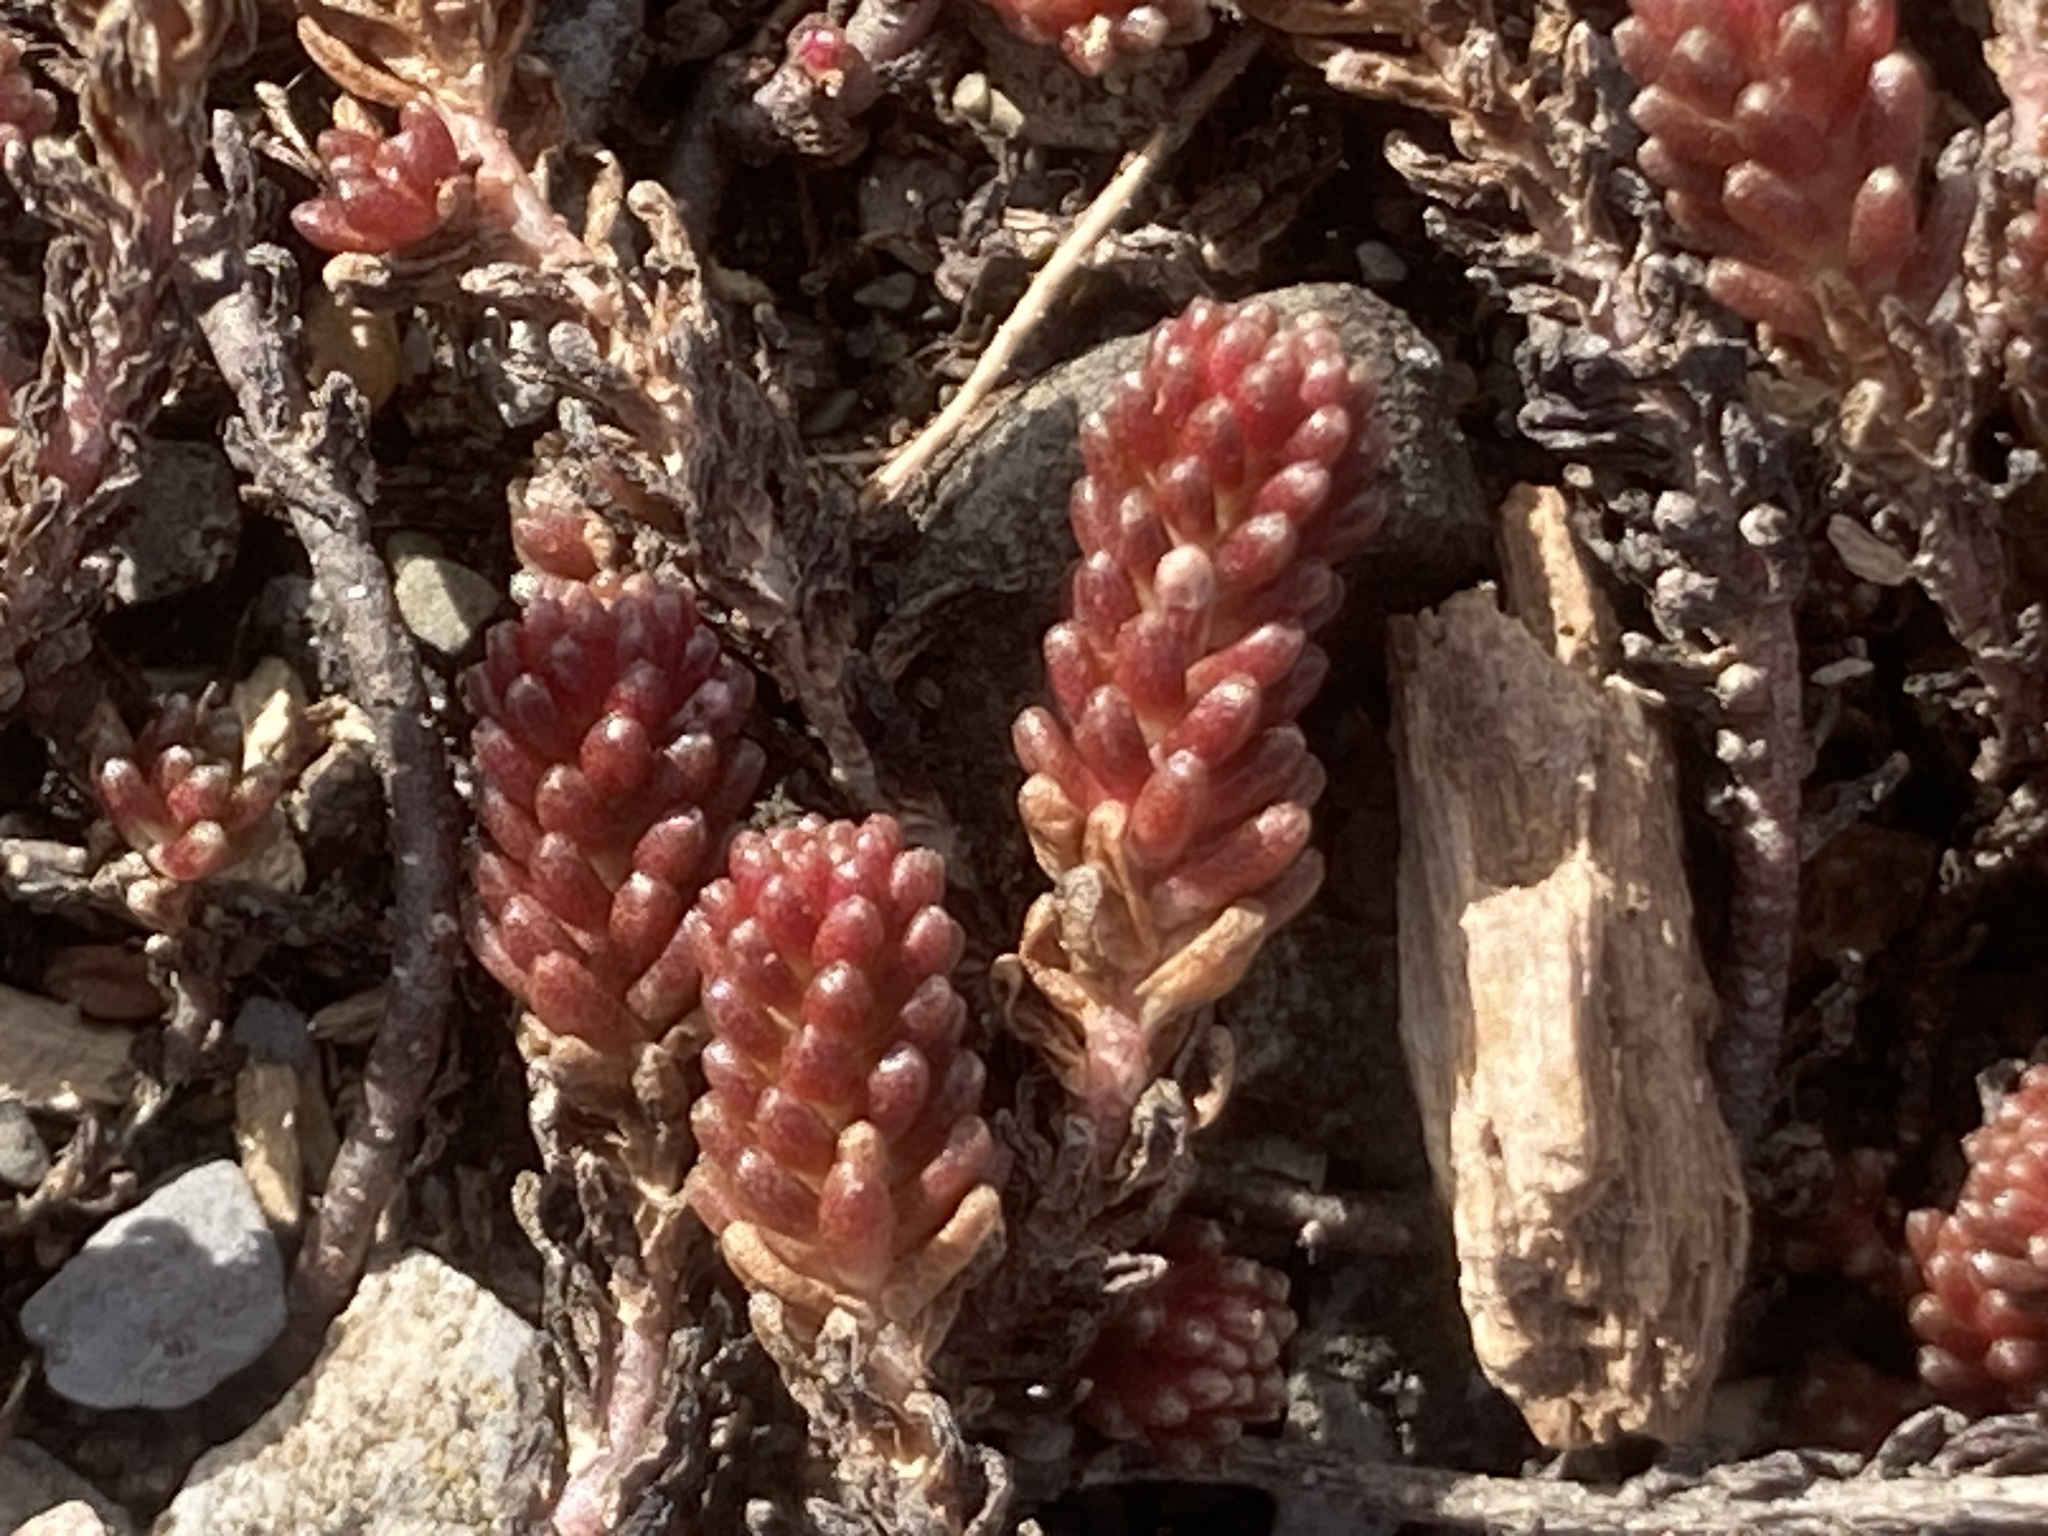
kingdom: Plantae
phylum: Tracheophyta
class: Magnoliopsida
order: Saxifragales
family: Crassulaceae
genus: Sedum
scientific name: Sedum sexangulare
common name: Tasteless stonecrop
